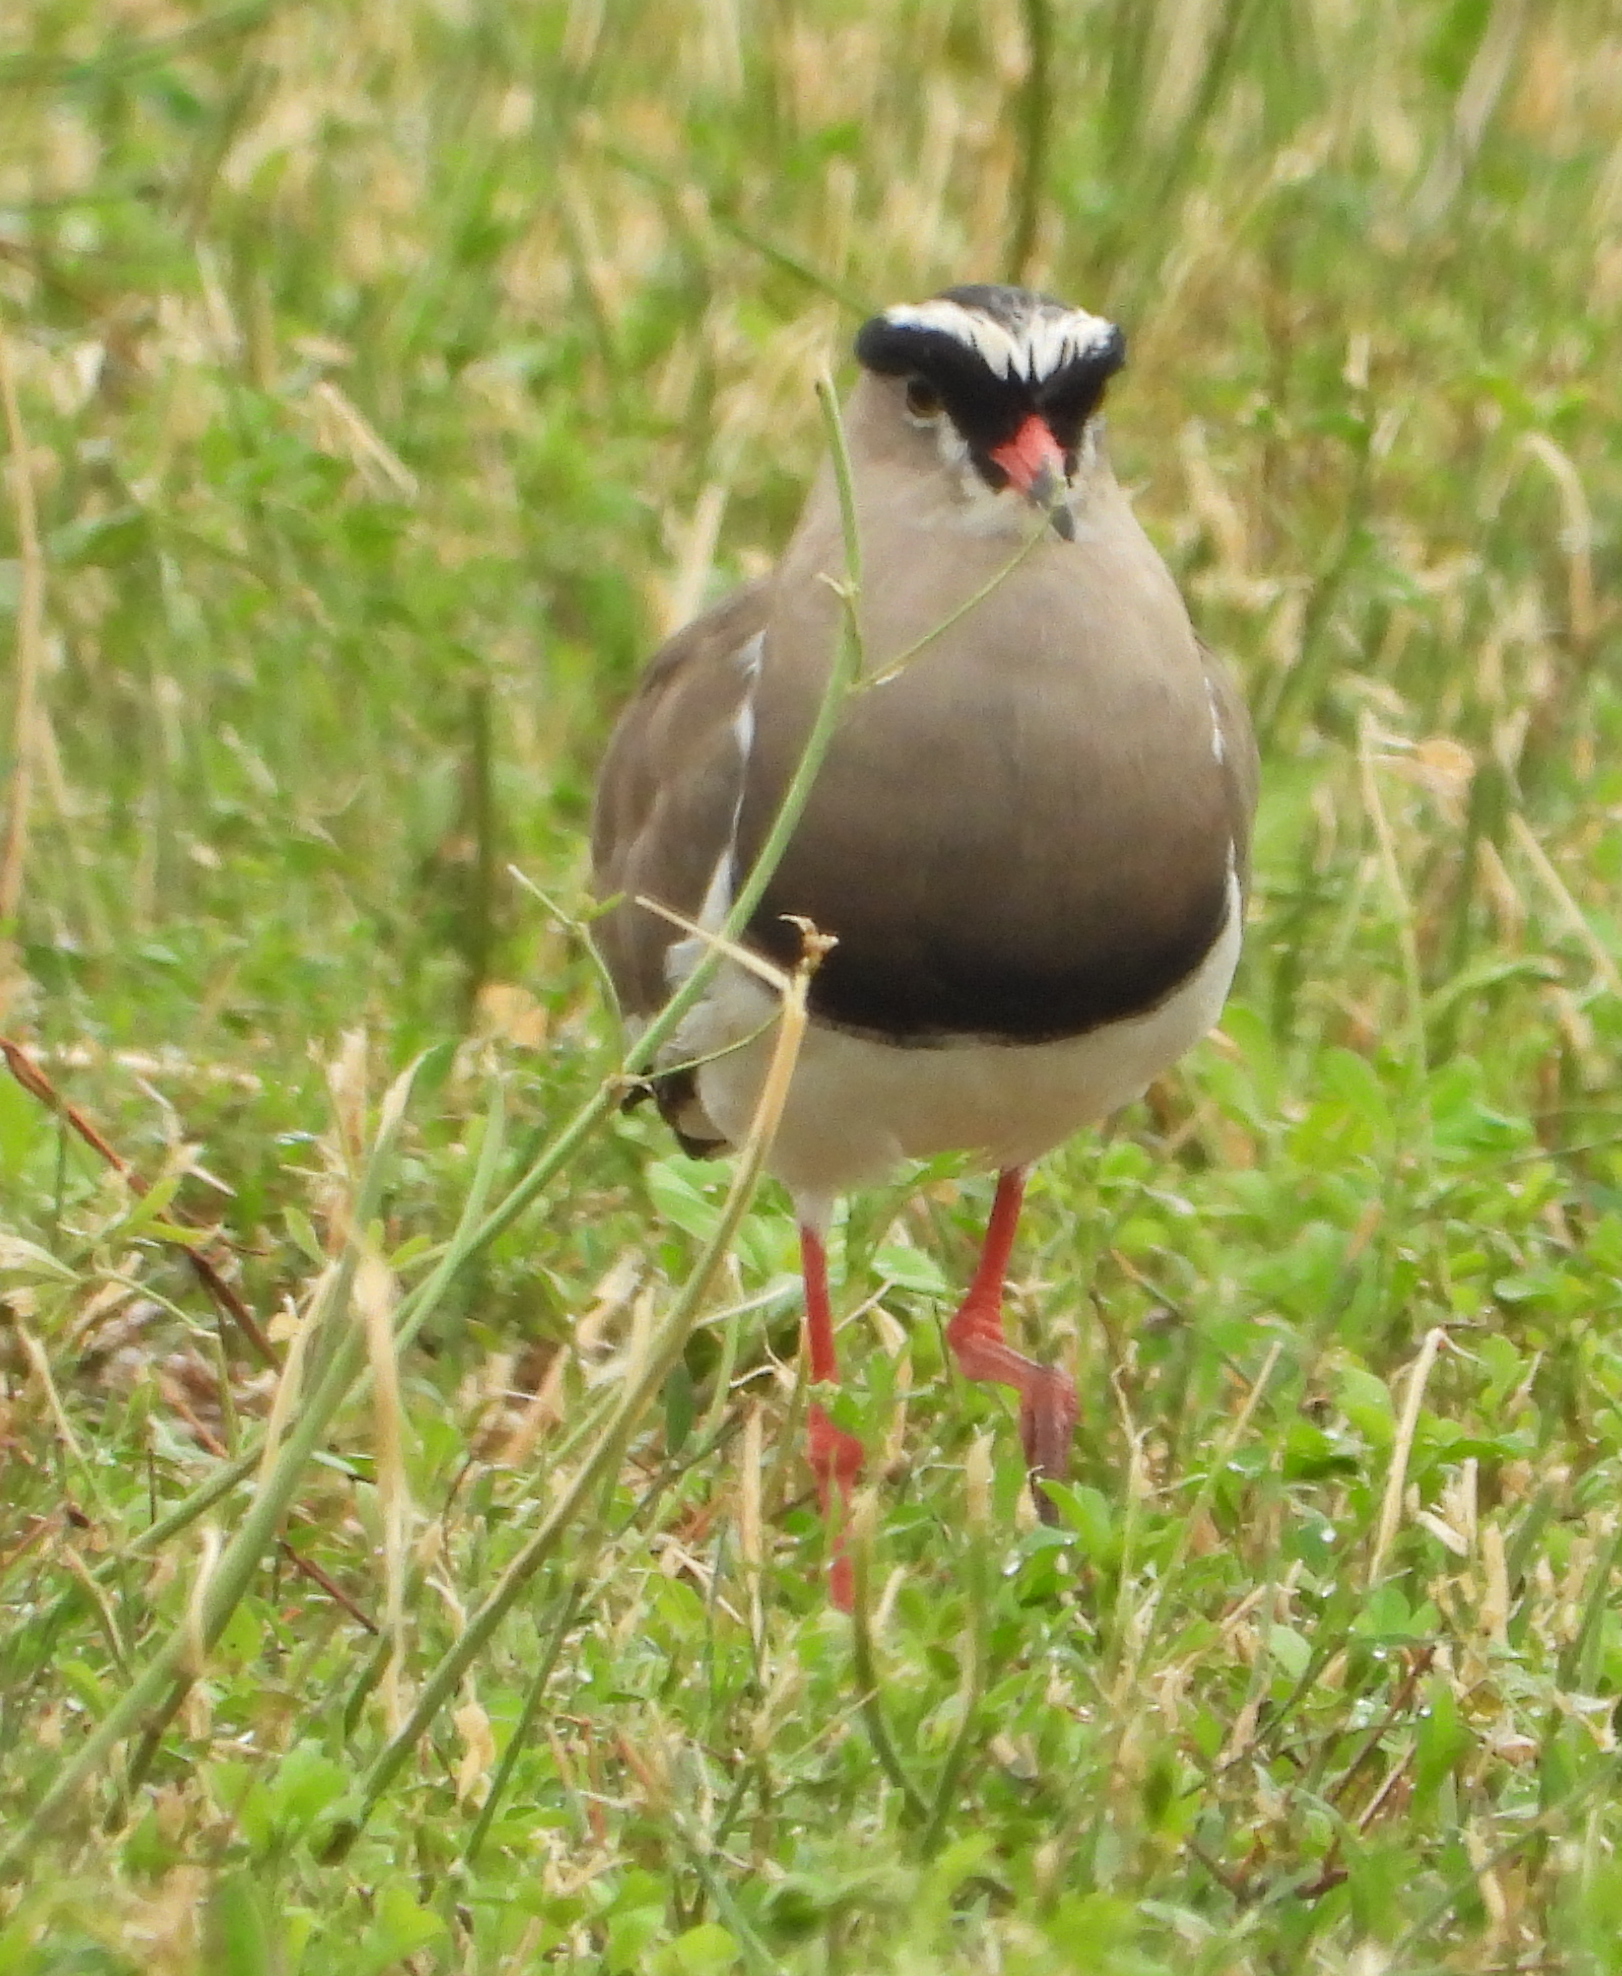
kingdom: Animalia
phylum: Chordata
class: Aves
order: Charadriiformes
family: Charadriidae
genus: Vanellus
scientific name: Vanellus coronatus
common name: Crowned lapwing
